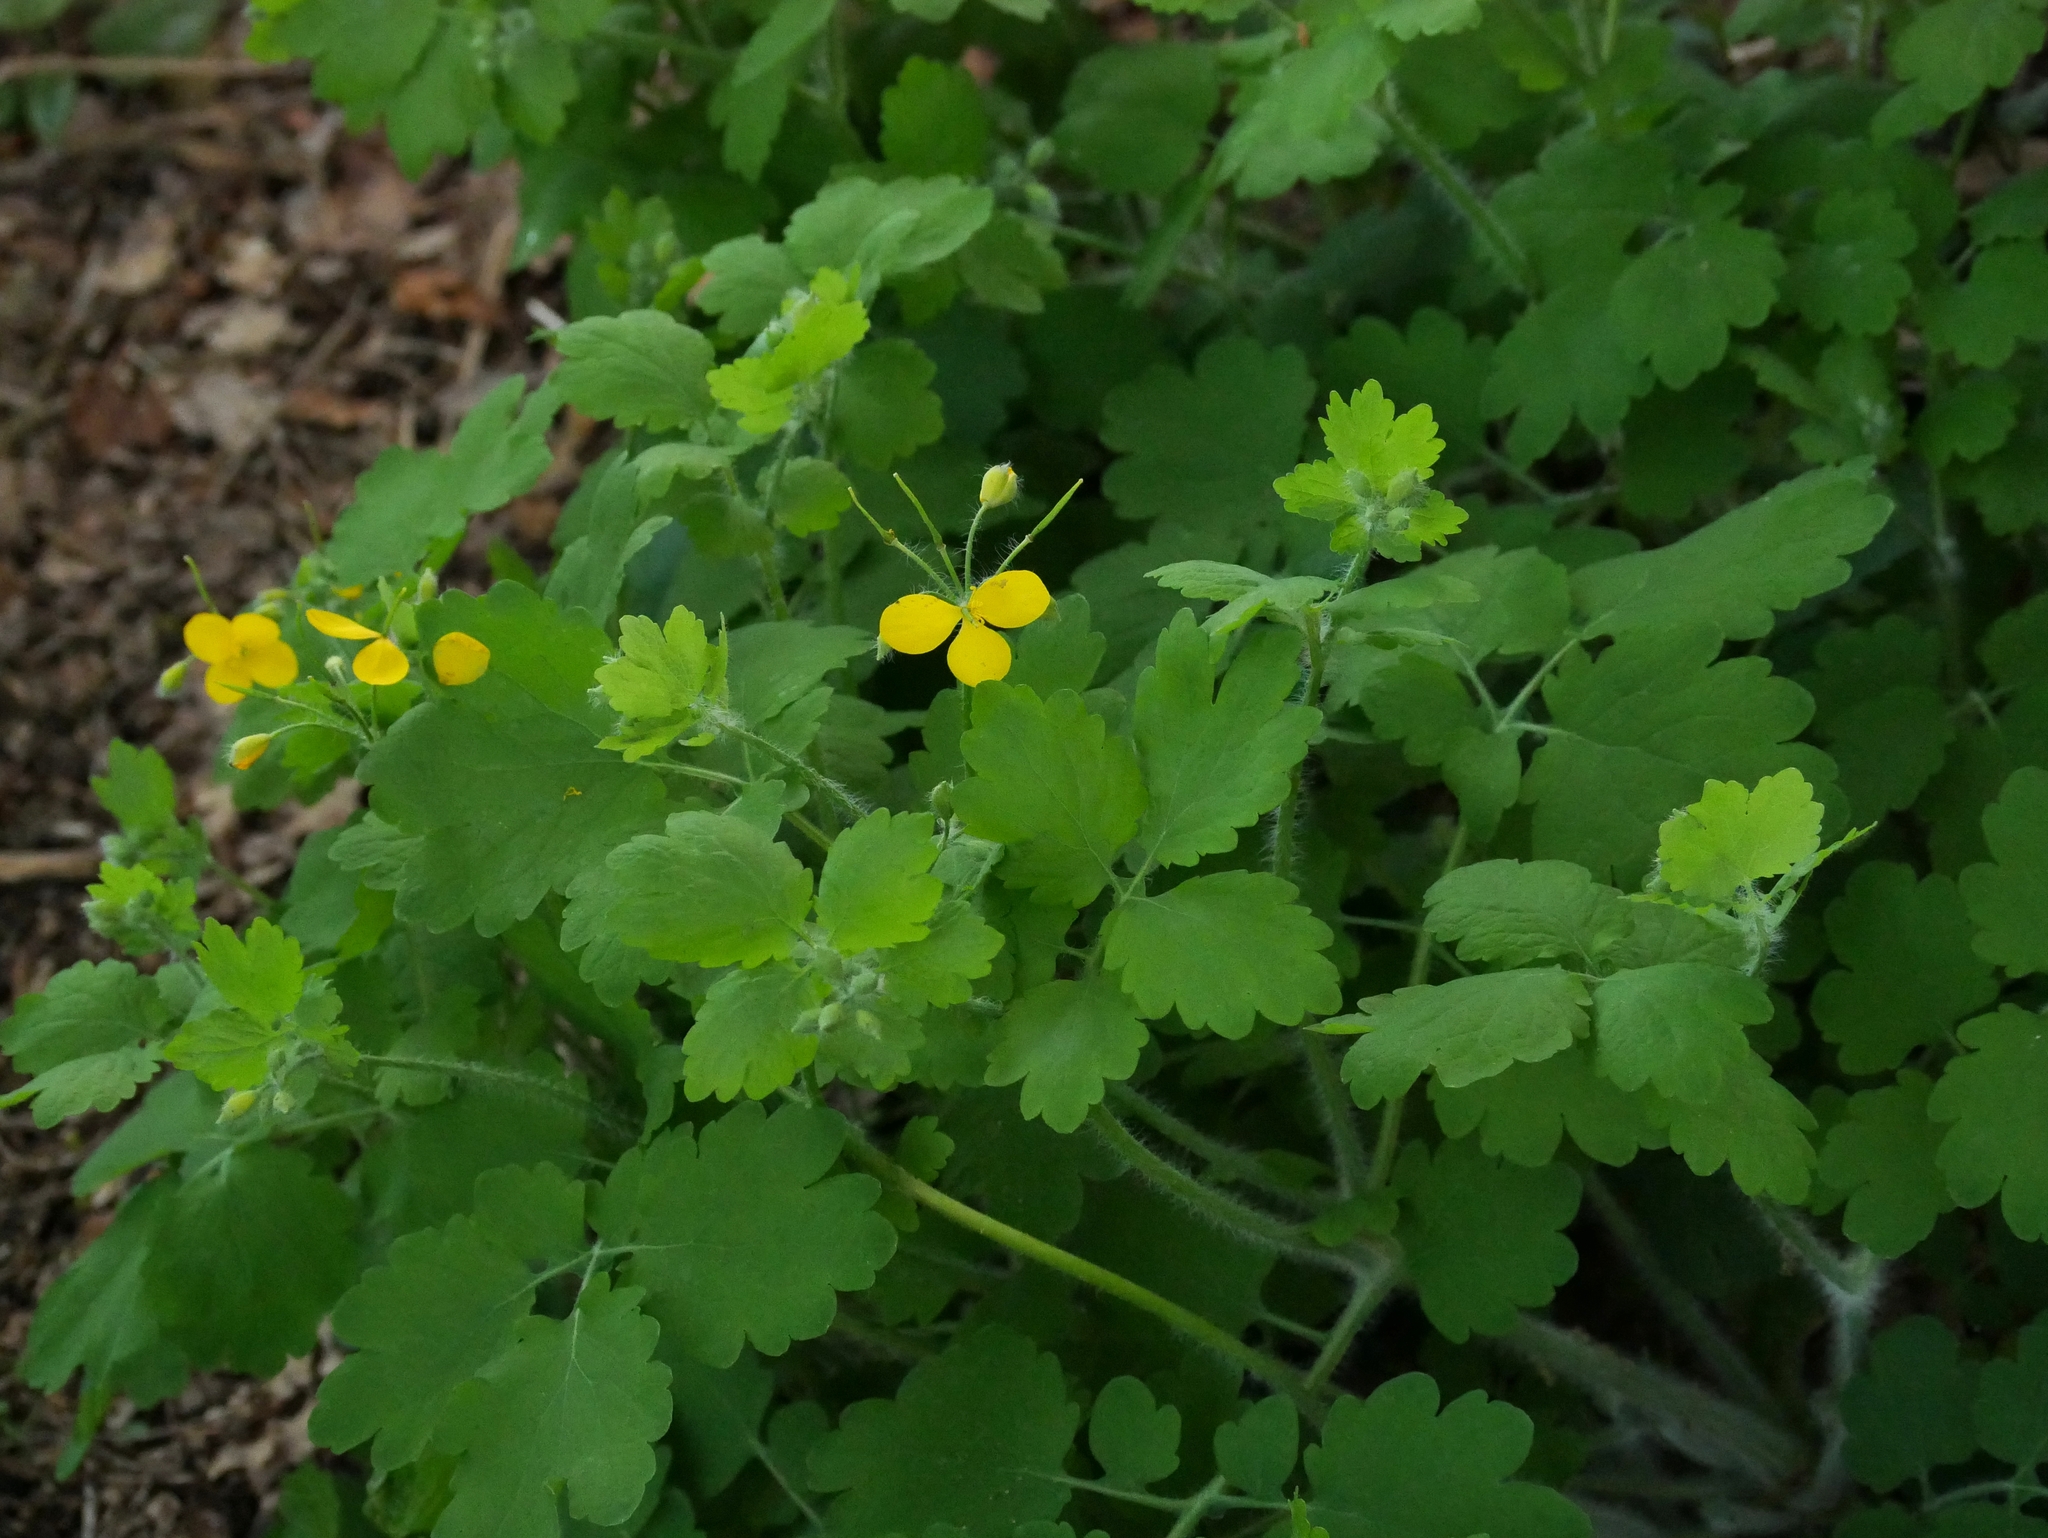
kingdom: Plantae
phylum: Tracheophyta
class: Magnoliopsida
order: Ranunculales
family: Papaveraceae
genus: Chelidonium
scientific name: Chelidonium majus
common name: Greater celandine
